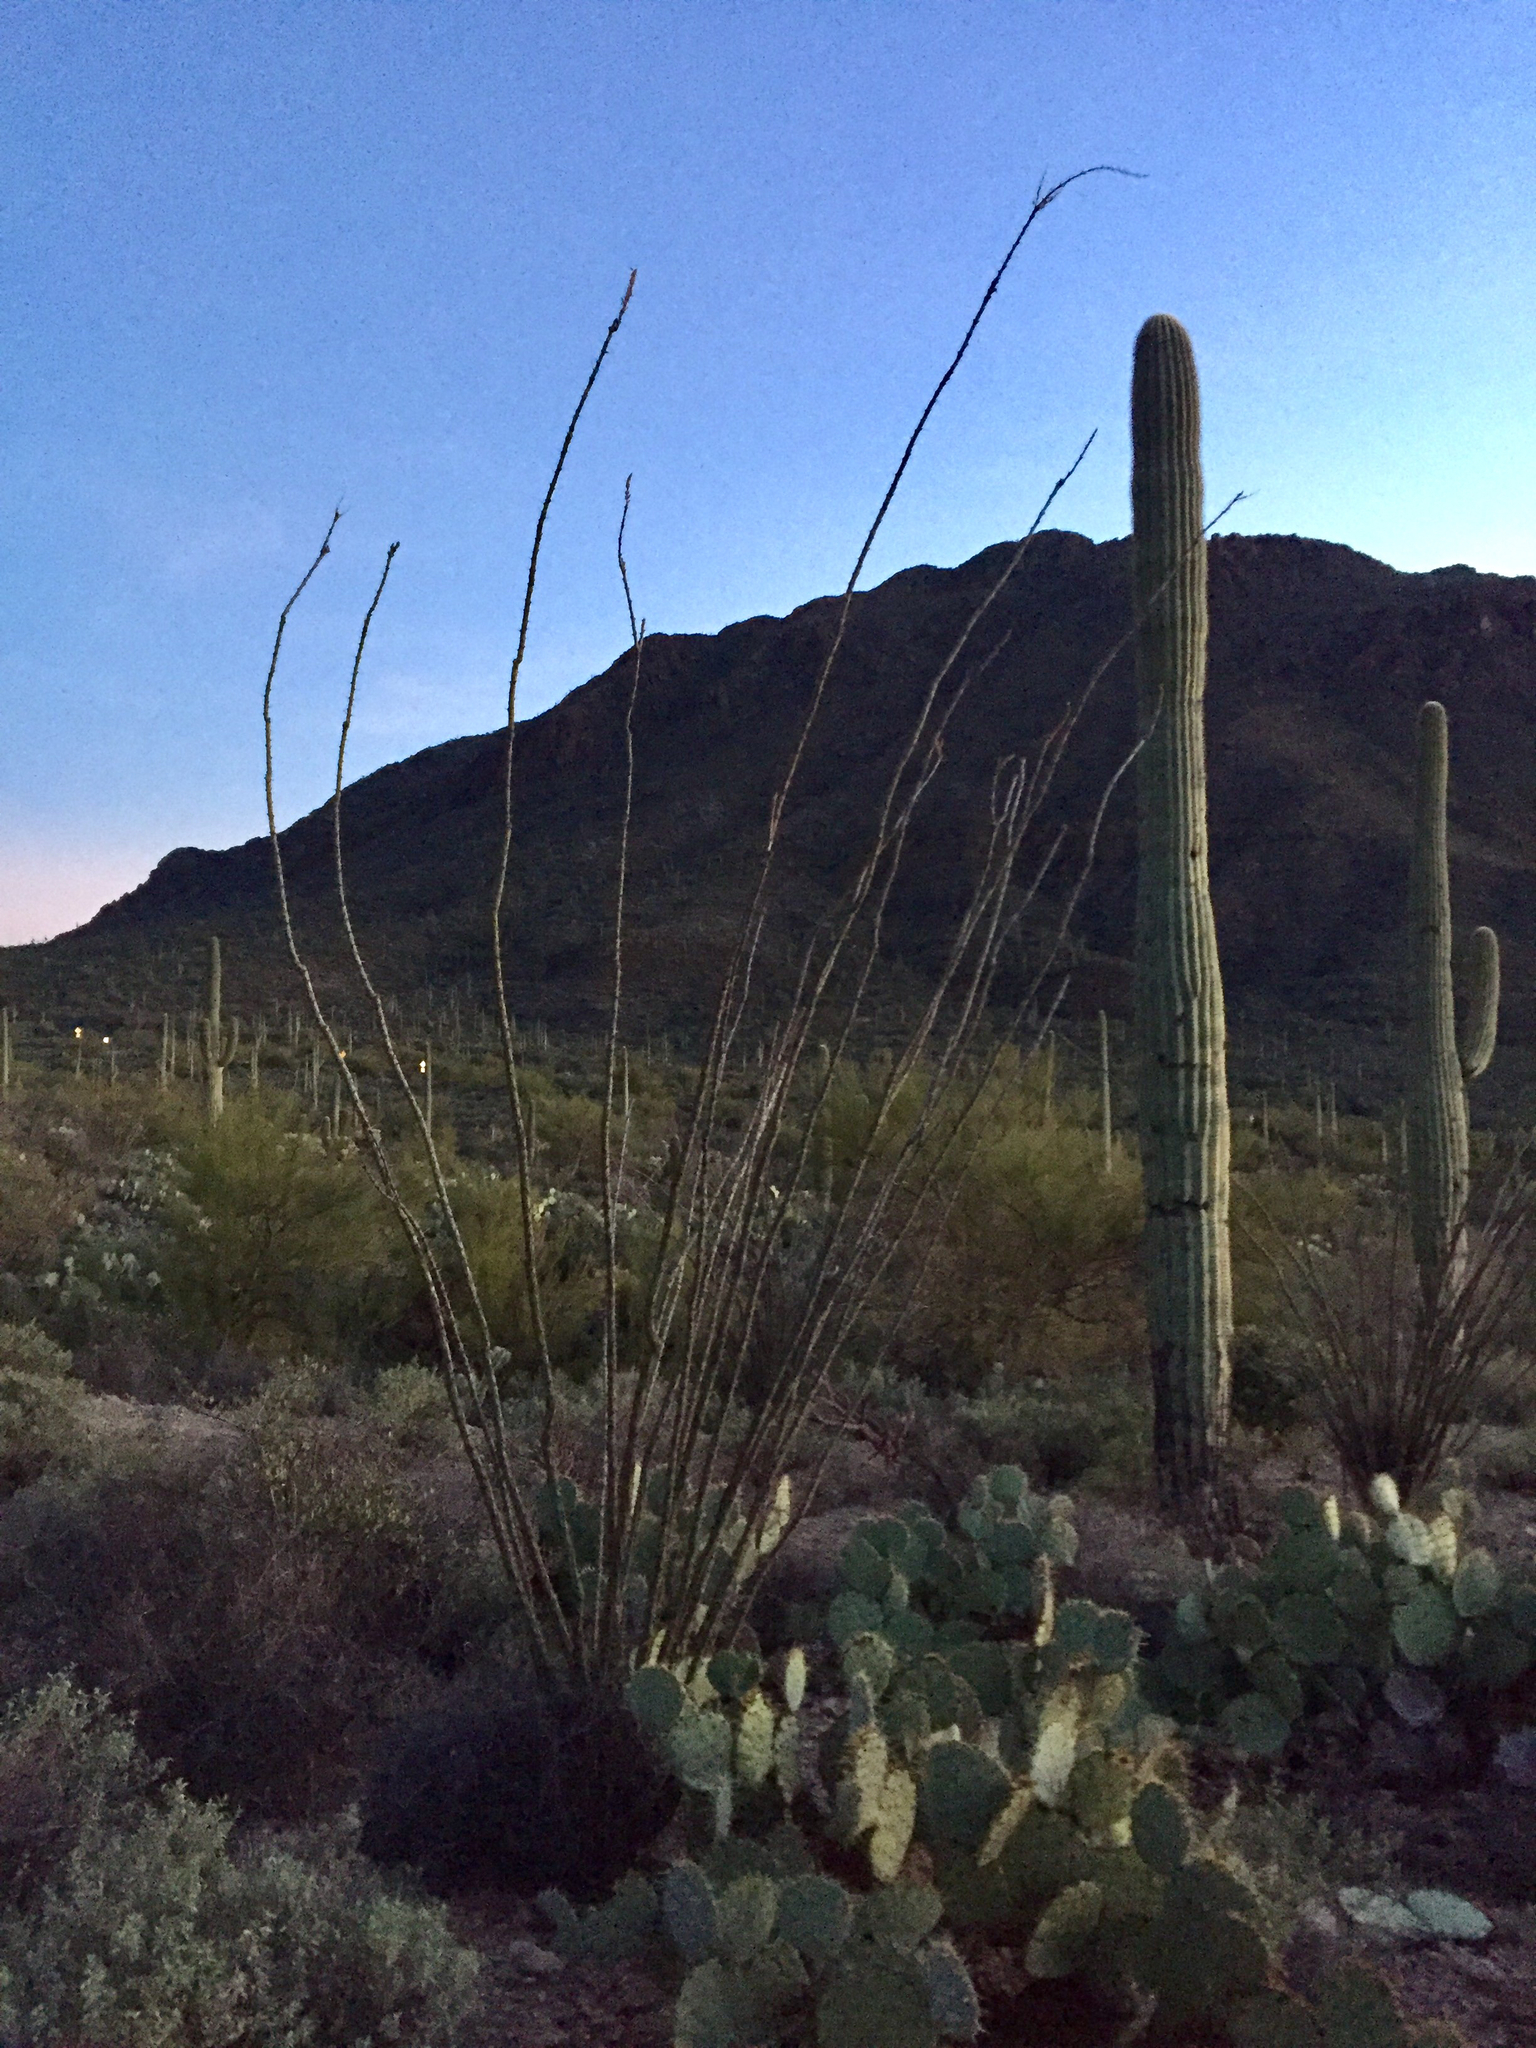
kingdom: Plantae
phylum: Tracheophyta
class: Magnoliopsida
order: Ericales
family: Fouquieriaceae
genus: Fouquieria
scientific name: Fouquieria splendens
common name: Vine-cactus
